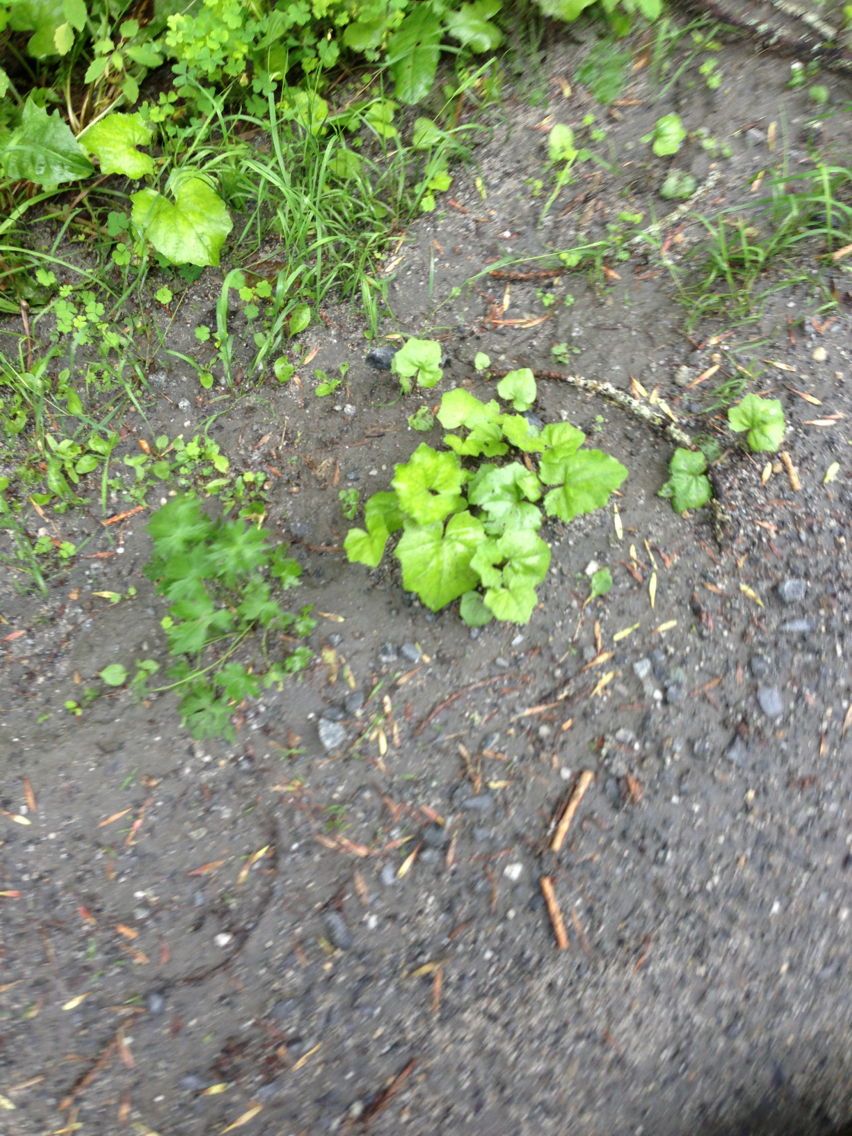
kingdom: Plantae
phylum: Tracheophyta
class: Magnoliopsida
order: Asterales
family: Asteraceae
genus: Tussilago
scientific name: Tussilago farfara
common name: Coltsfoot
